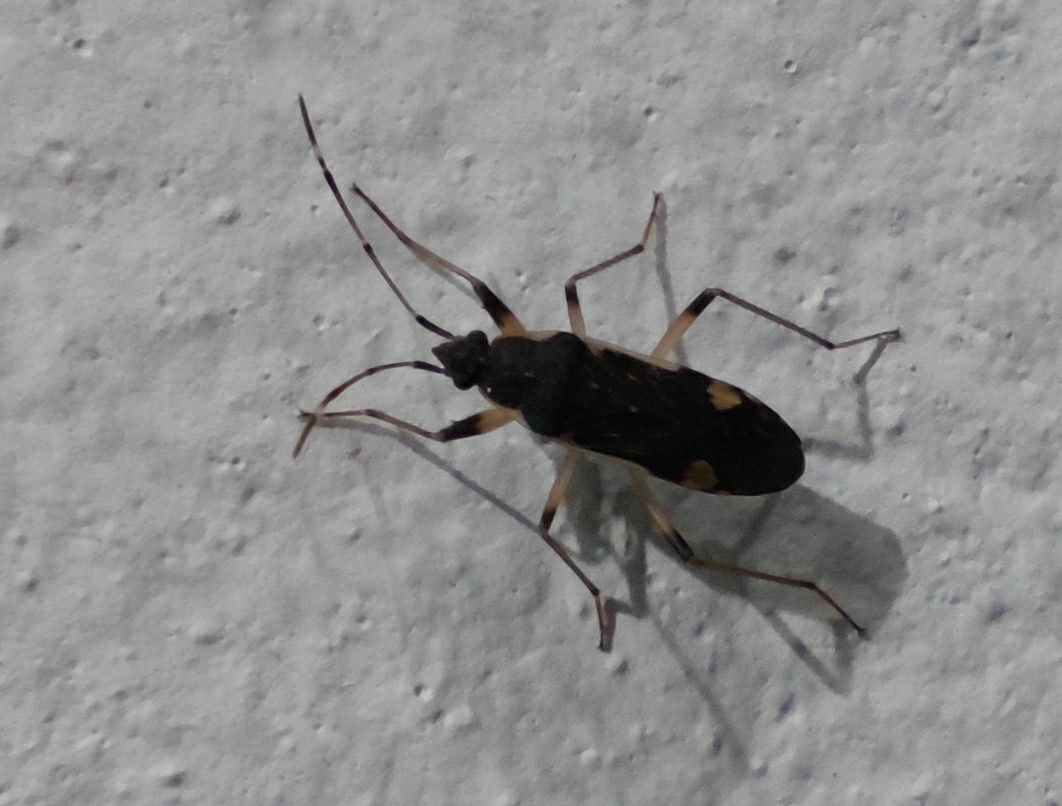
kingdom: Animalia
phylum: Arthropoda
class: Insecta
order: Hemiptera
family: Rhyparochromidae
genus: Dieuches
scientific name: Dieuches armatipes
